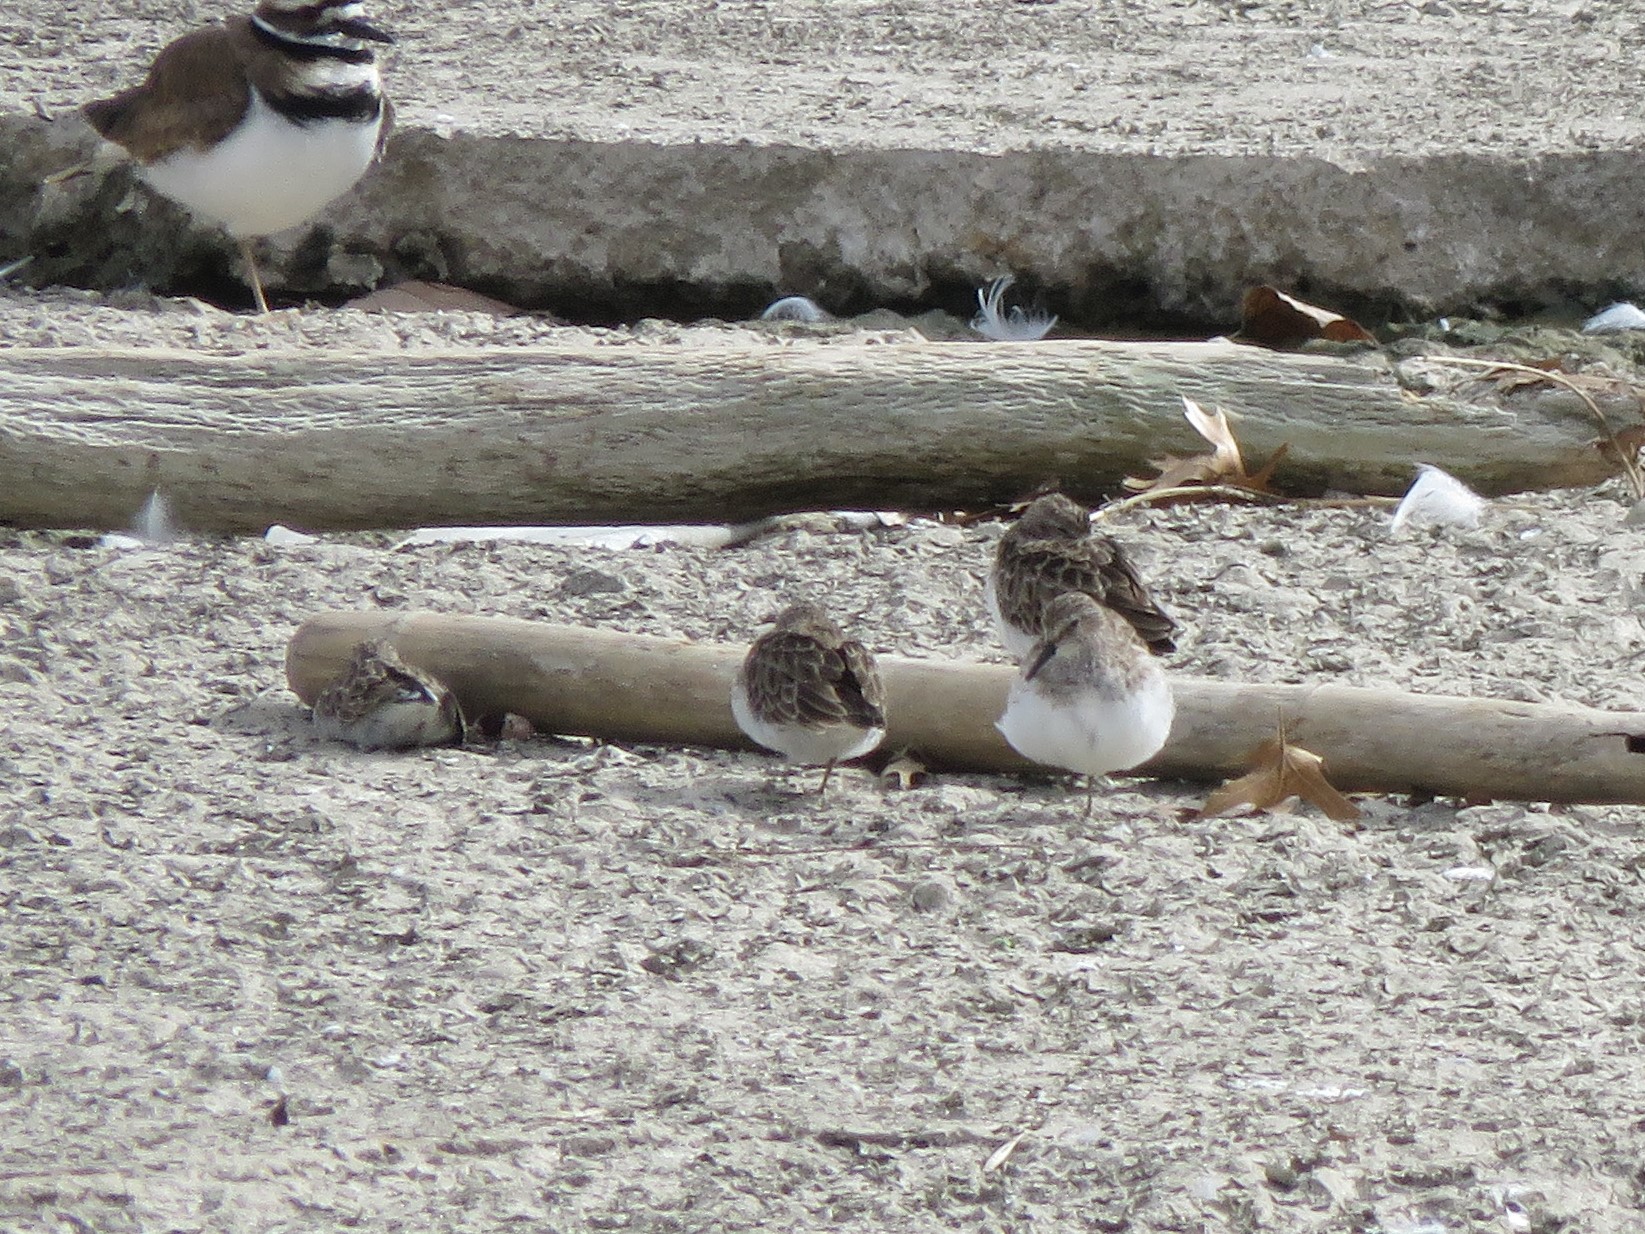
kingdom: Animalia
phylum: Chordata
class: Aves
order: Charadriiformes
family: Scolopacidae
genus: Calidris
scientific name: Calidris minutilla
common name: Least sandpiper
